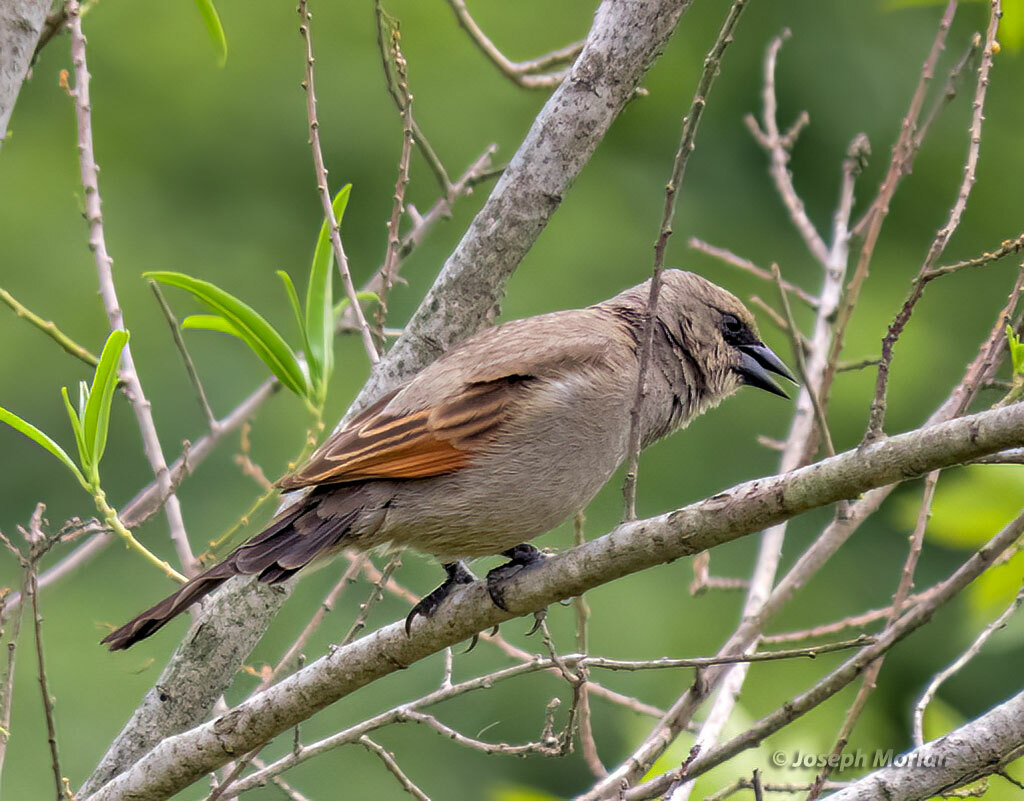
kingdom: Animalia
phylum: Chordata
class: Aves
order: Passeriformes
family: Icteridae
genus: Agelaioides
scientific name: Agelaioides badius
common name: Baywing
